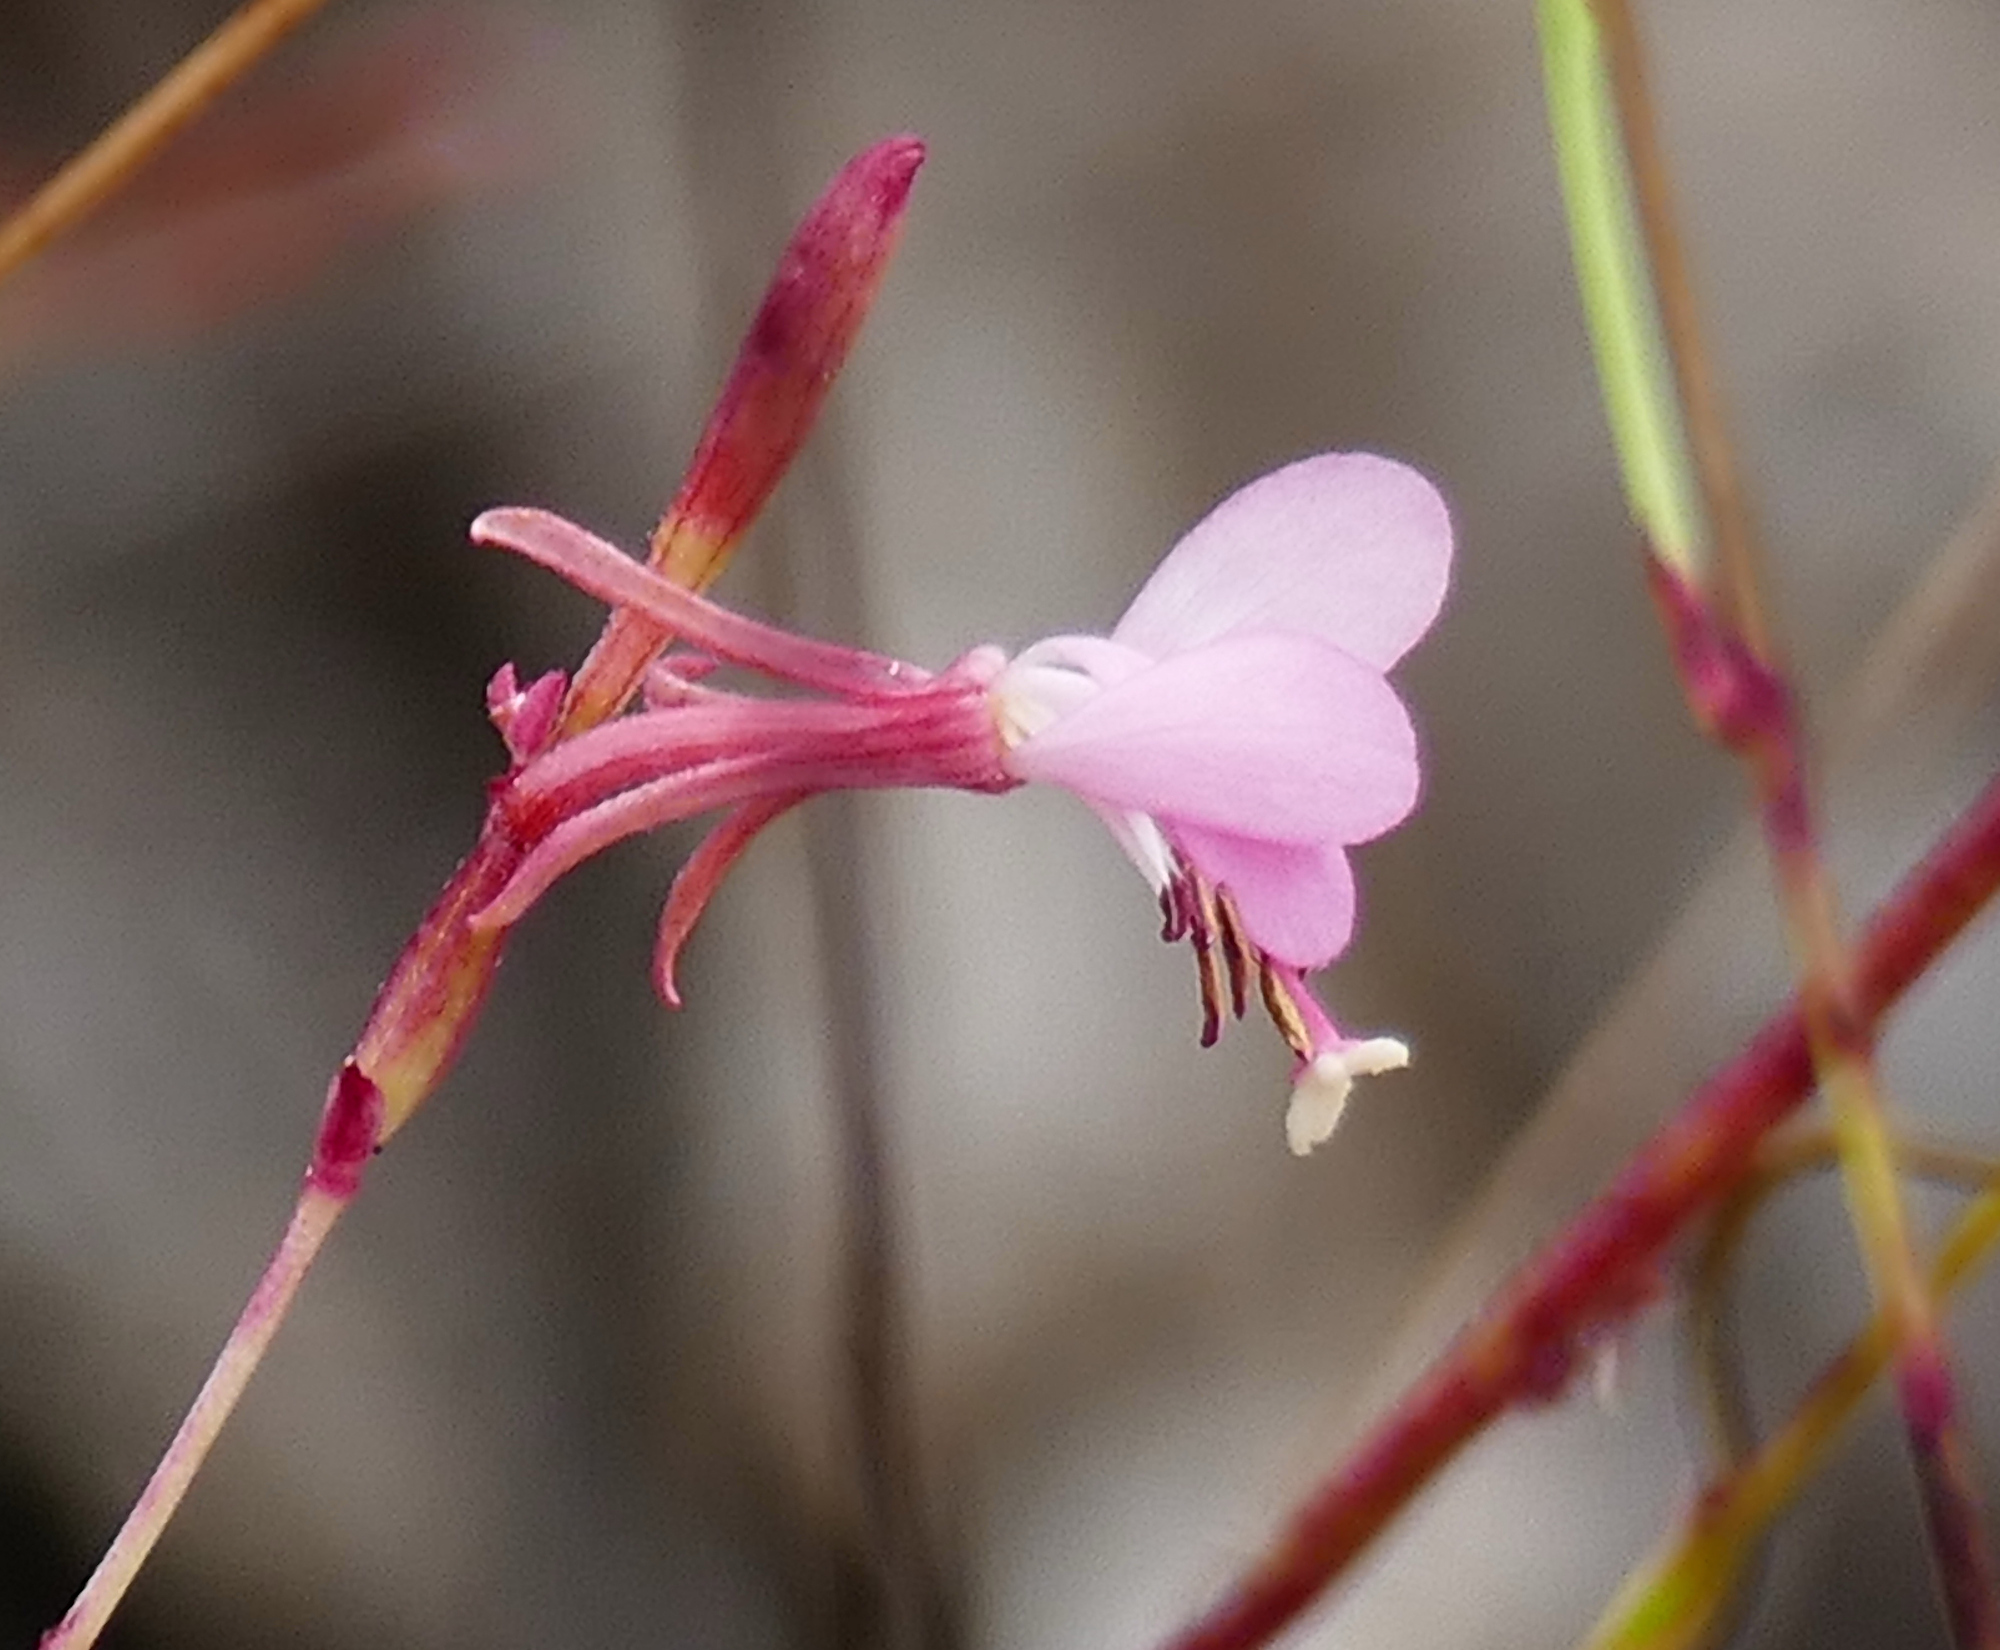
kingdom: Plantae
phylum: Tracheophyta
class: Magnoliopsida
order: Myrtales
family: Onagraceae
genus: Oenothera
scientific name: Oenothera podocarpa
